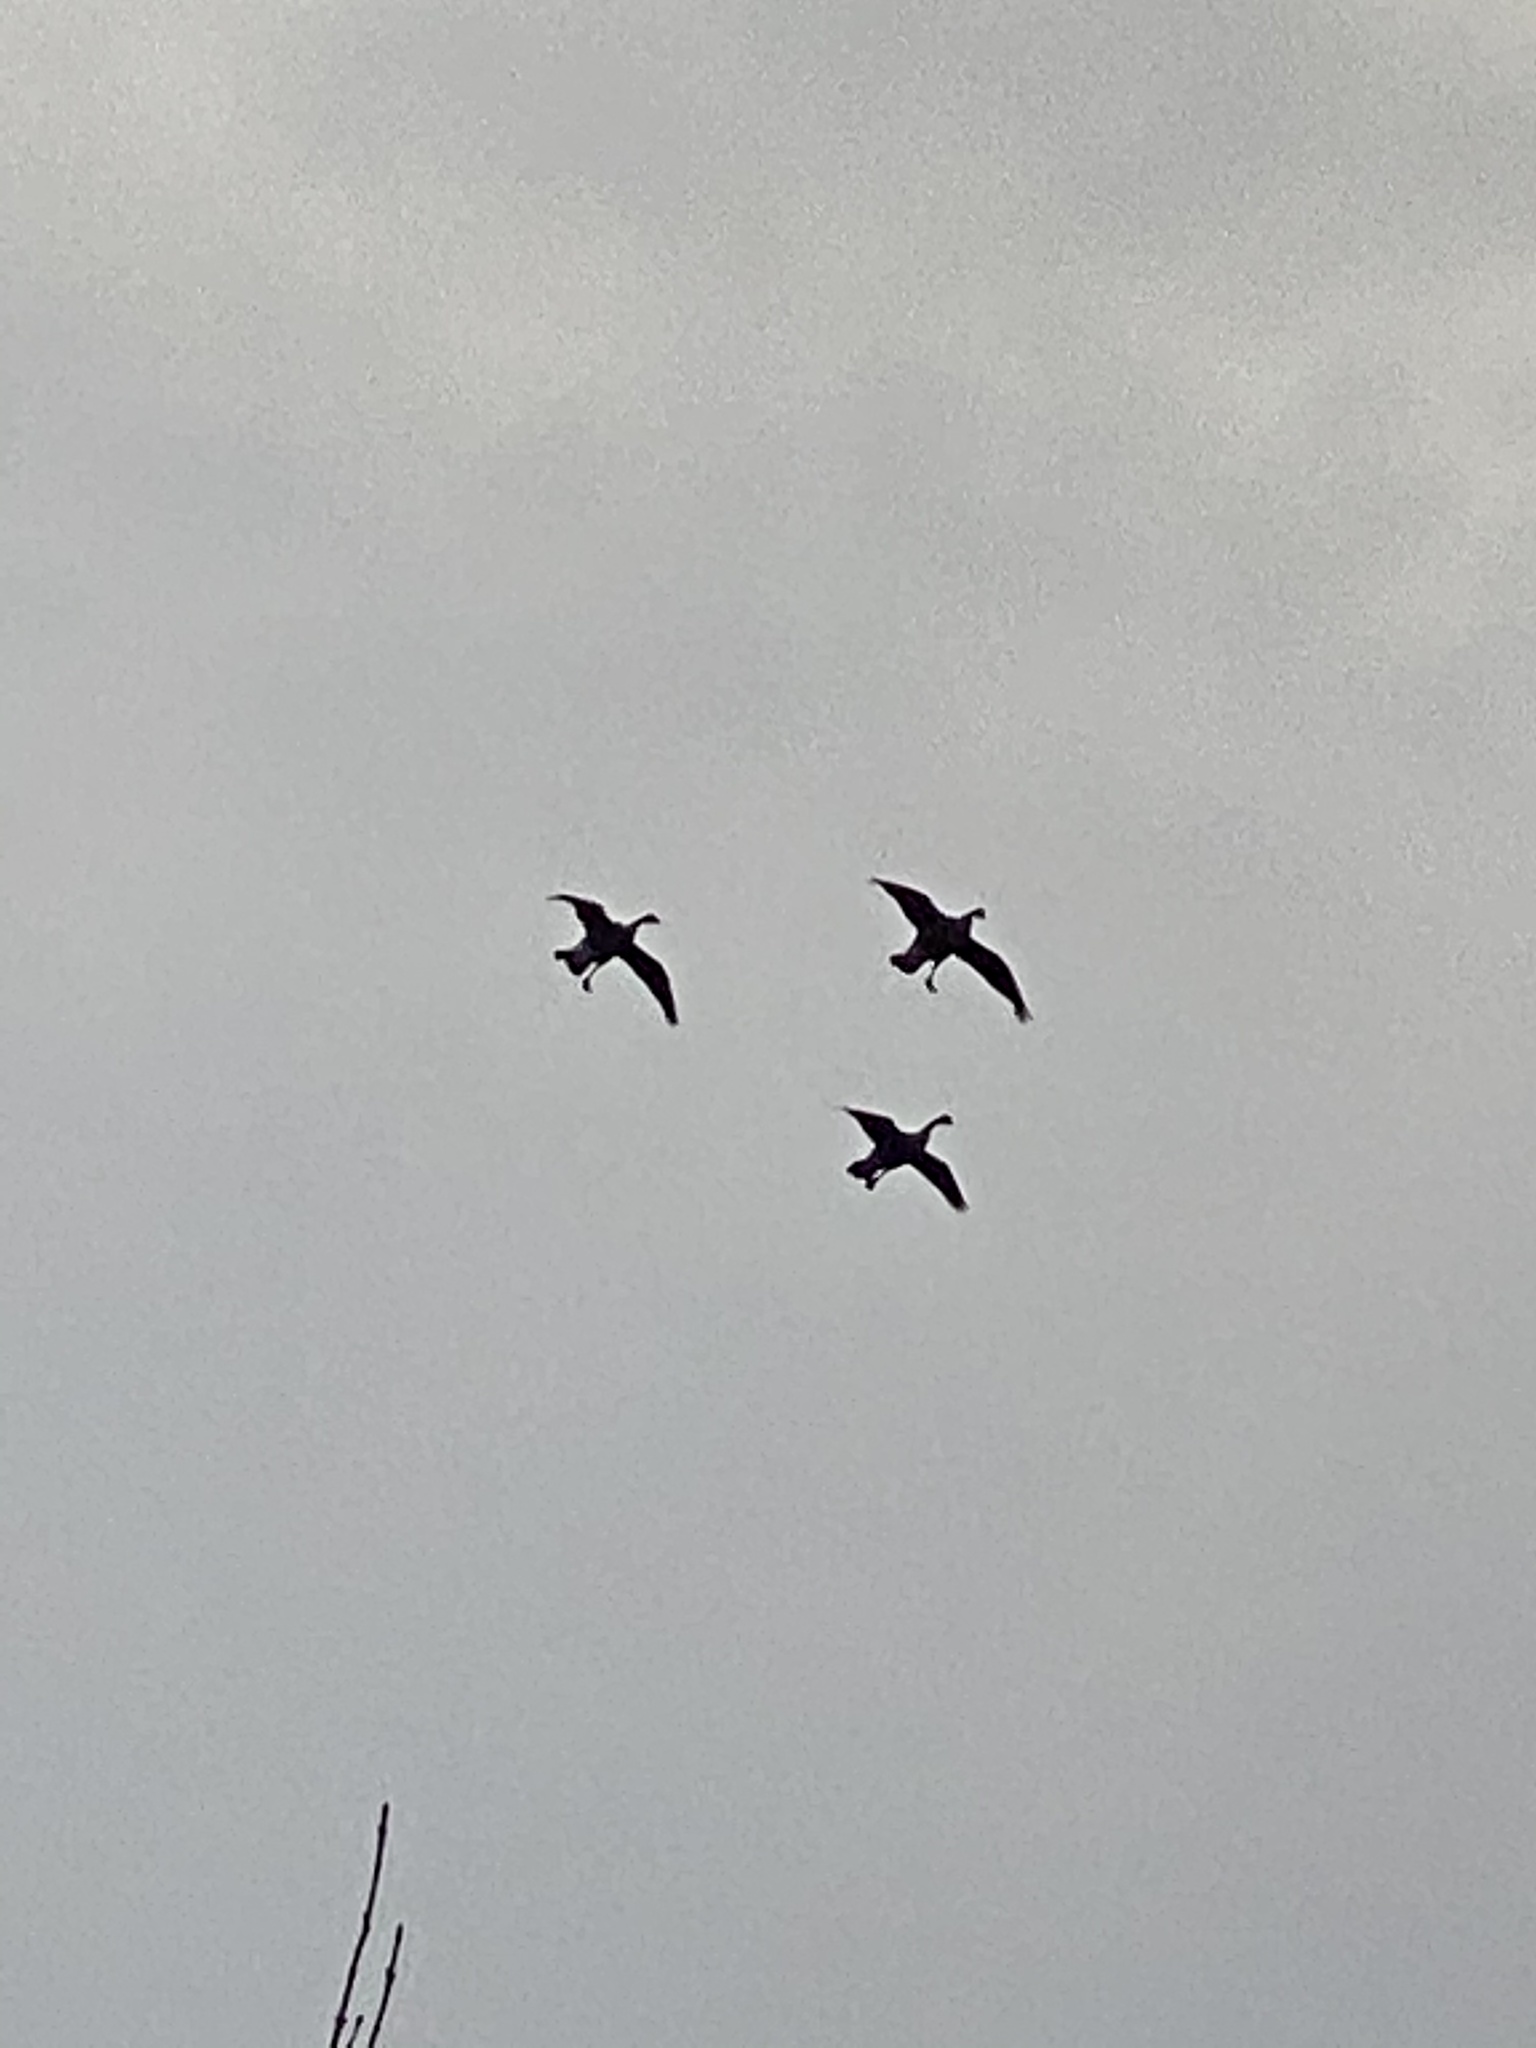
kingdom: Animalia
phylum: Chordata
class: Aves
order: Anseriformes
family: Anatidae
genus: Branta
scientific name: Branta canadensis
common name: Canada goose
